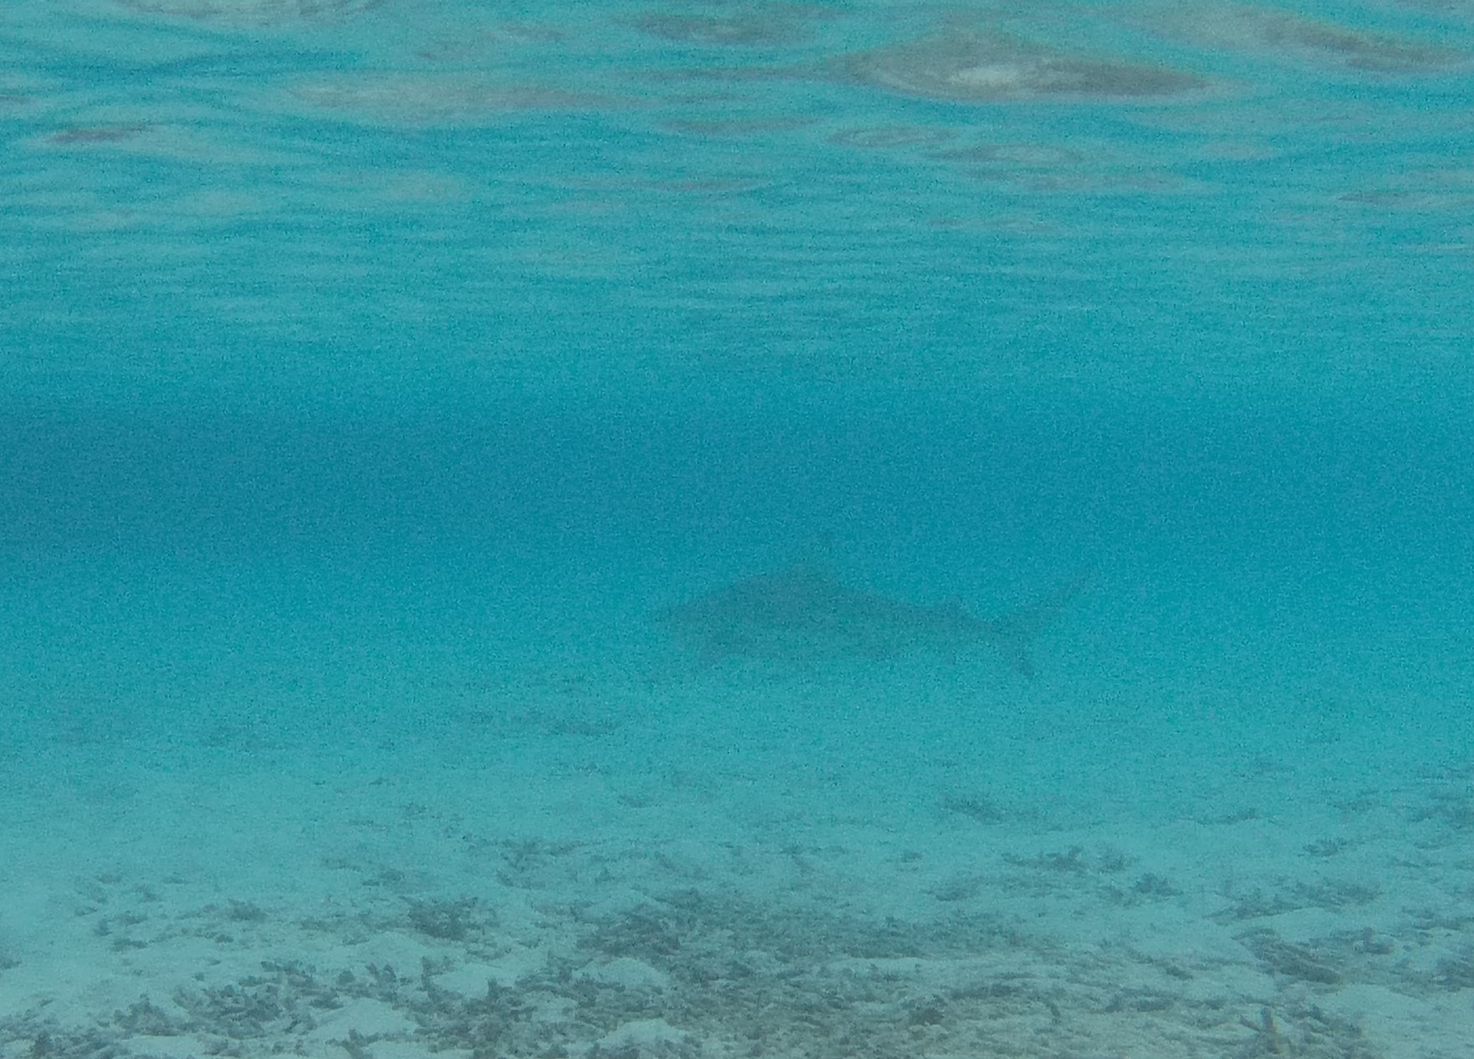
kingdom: Animalia
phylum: Chordata
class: Elasmobranchii
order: Carcharhiniformes
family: Carcharhinidae
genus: Carcharhinus
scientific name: Carcharhinus melanopterus
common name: Blacktip reef shark
